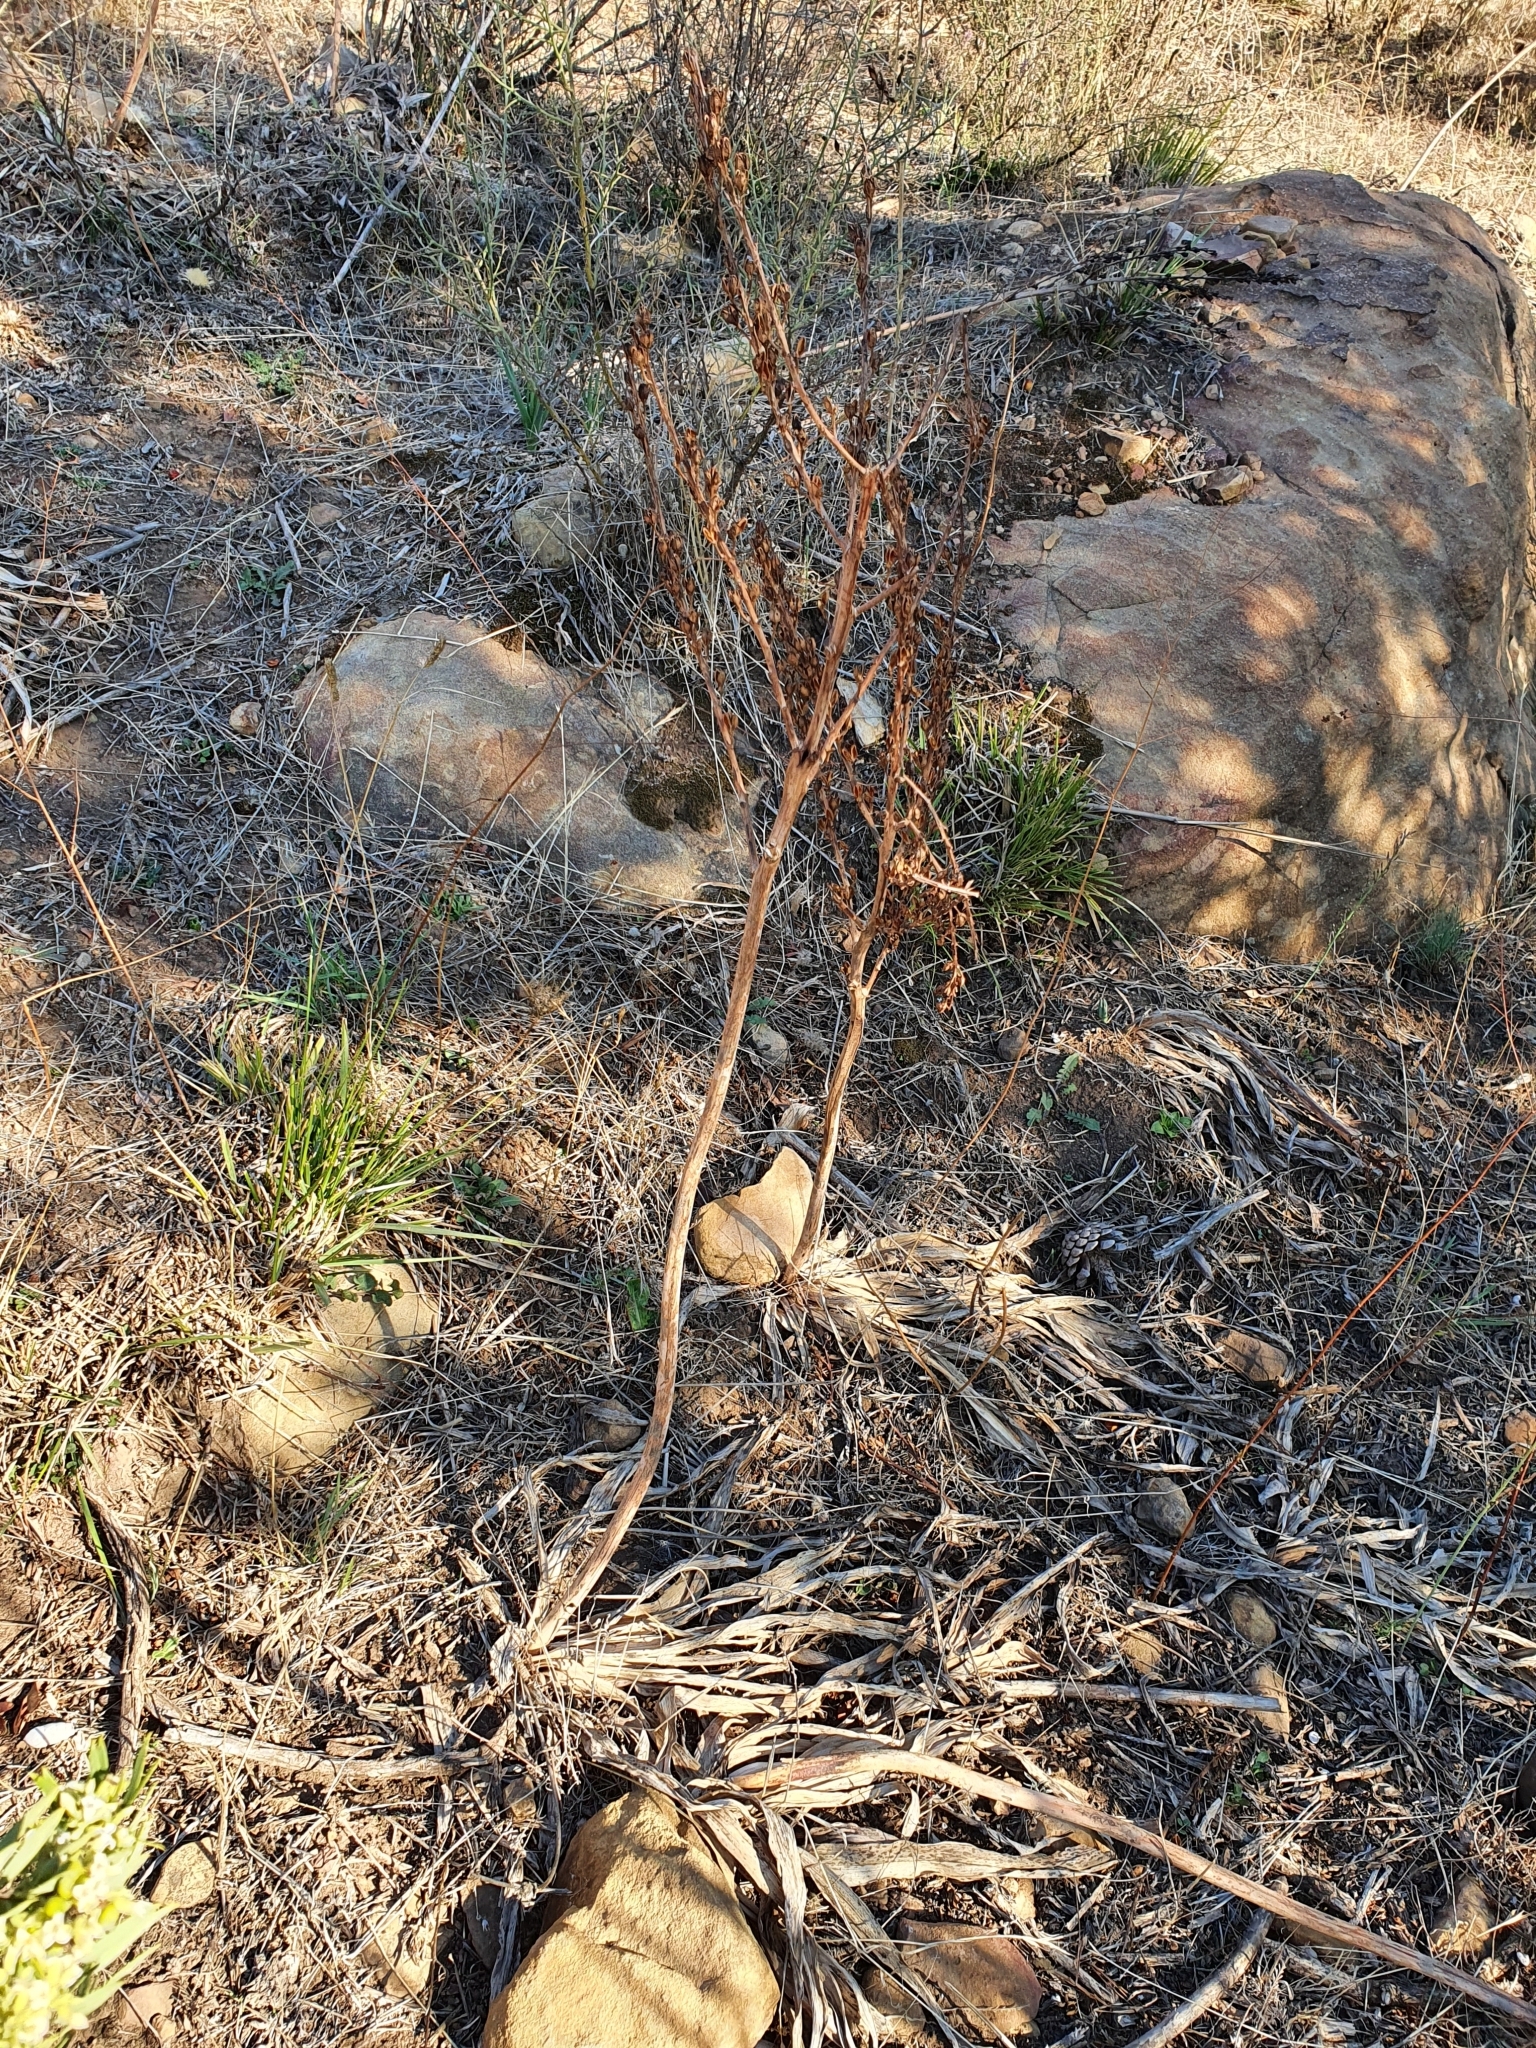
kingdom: Plantae
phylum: Tracheophyta
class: Liliopsida
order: Asparagales
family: Asphodelaceae
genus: Asphodelus
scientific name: Asphodelus ramosus
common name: Silverrod
